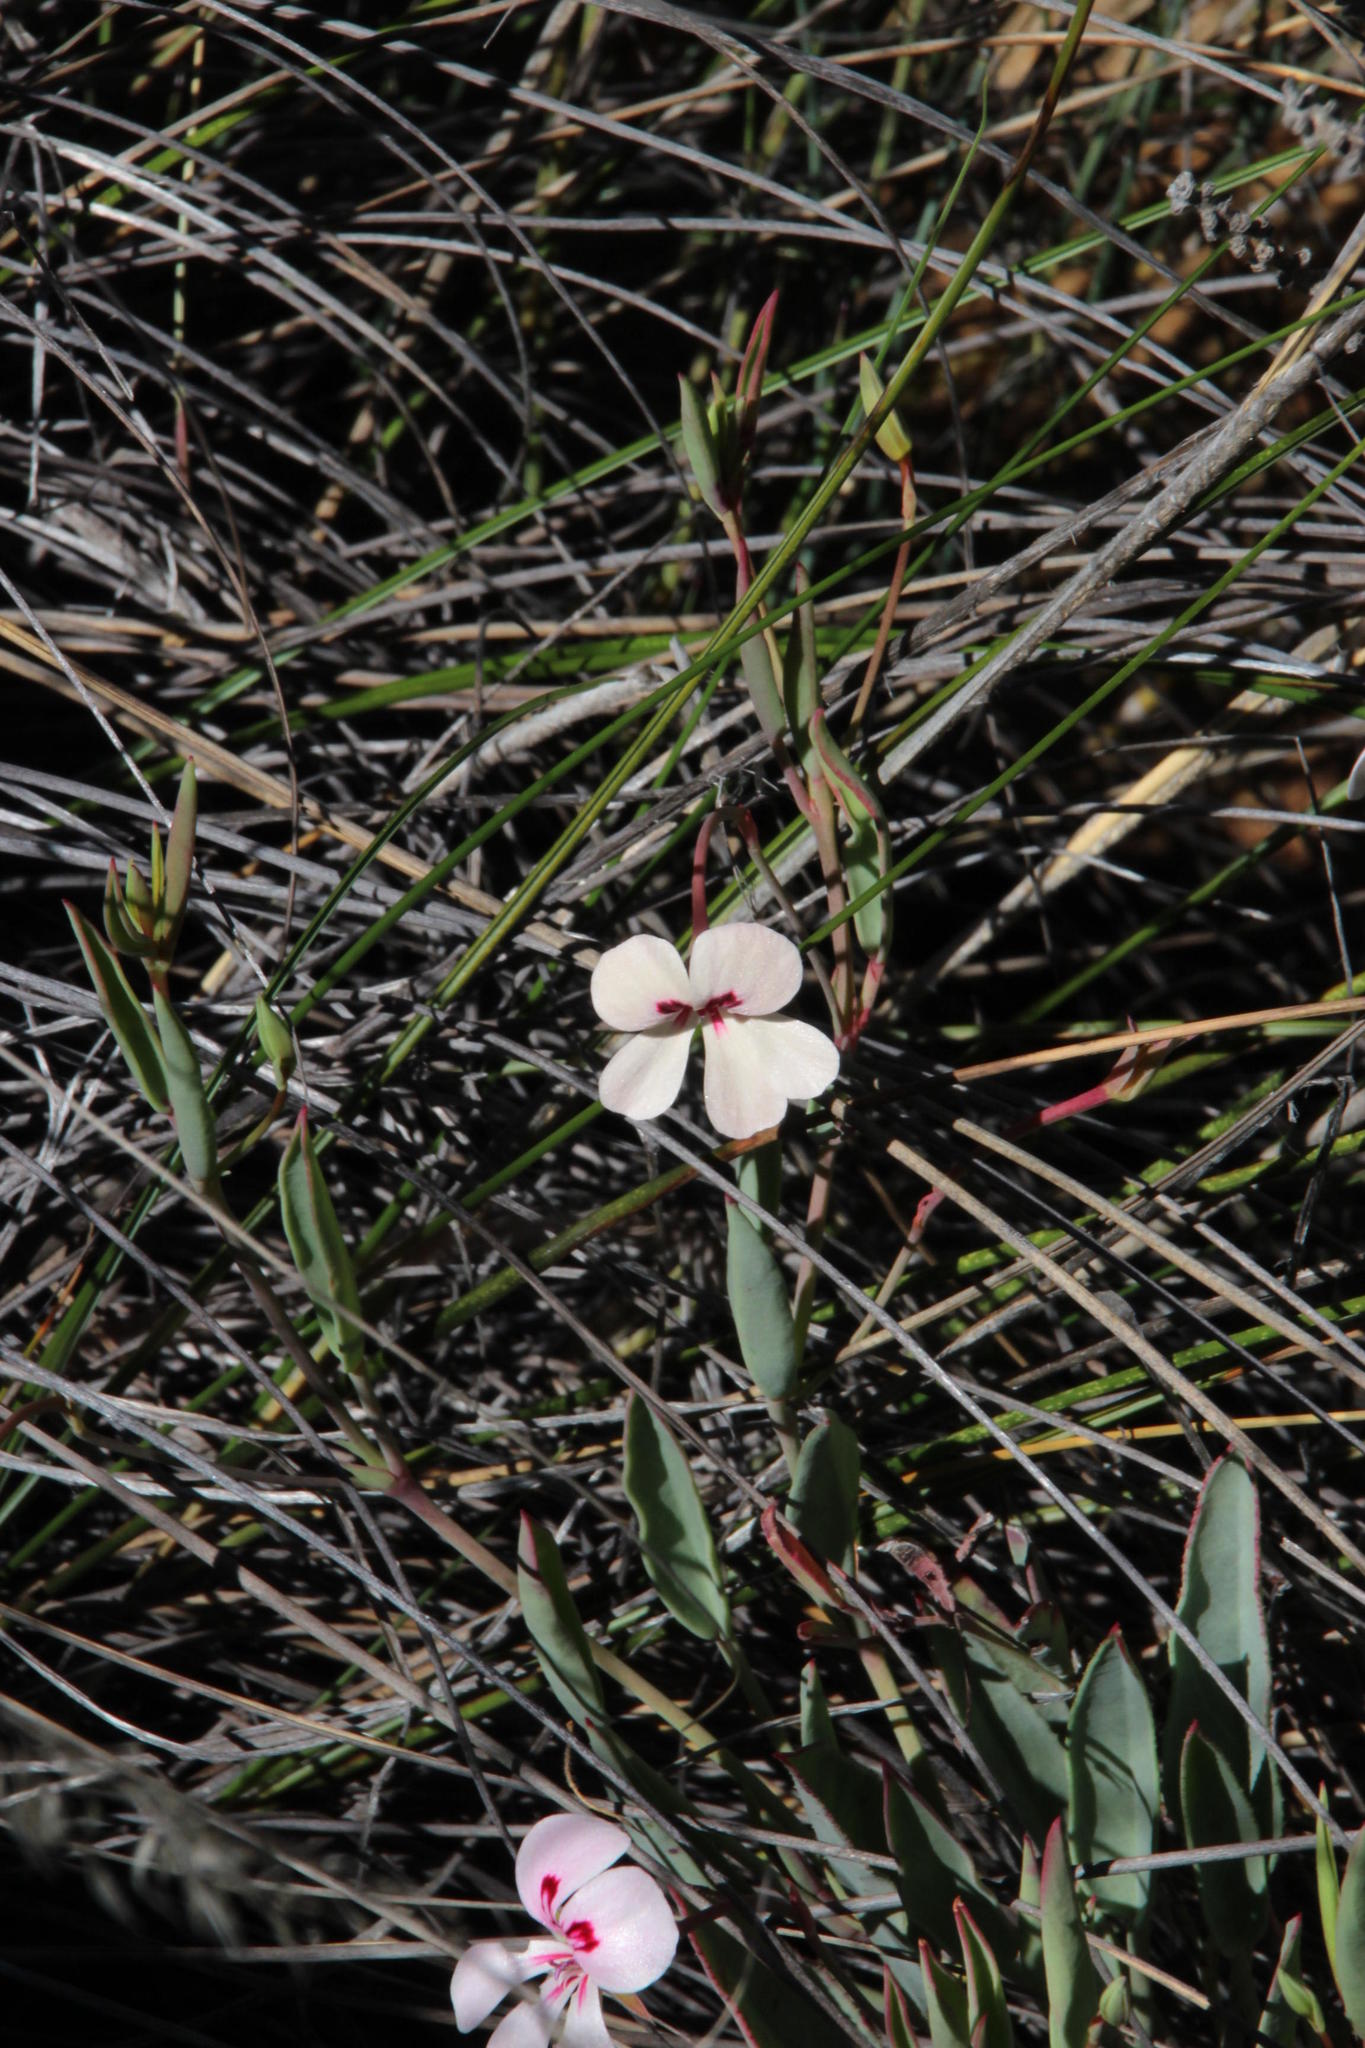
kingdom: Plantae
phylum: Tracheophyta
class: Magnoliopsida
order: Geraniales
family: Geraniaceae
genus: Pelargonium
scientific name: Pelargonium lanceolatum
